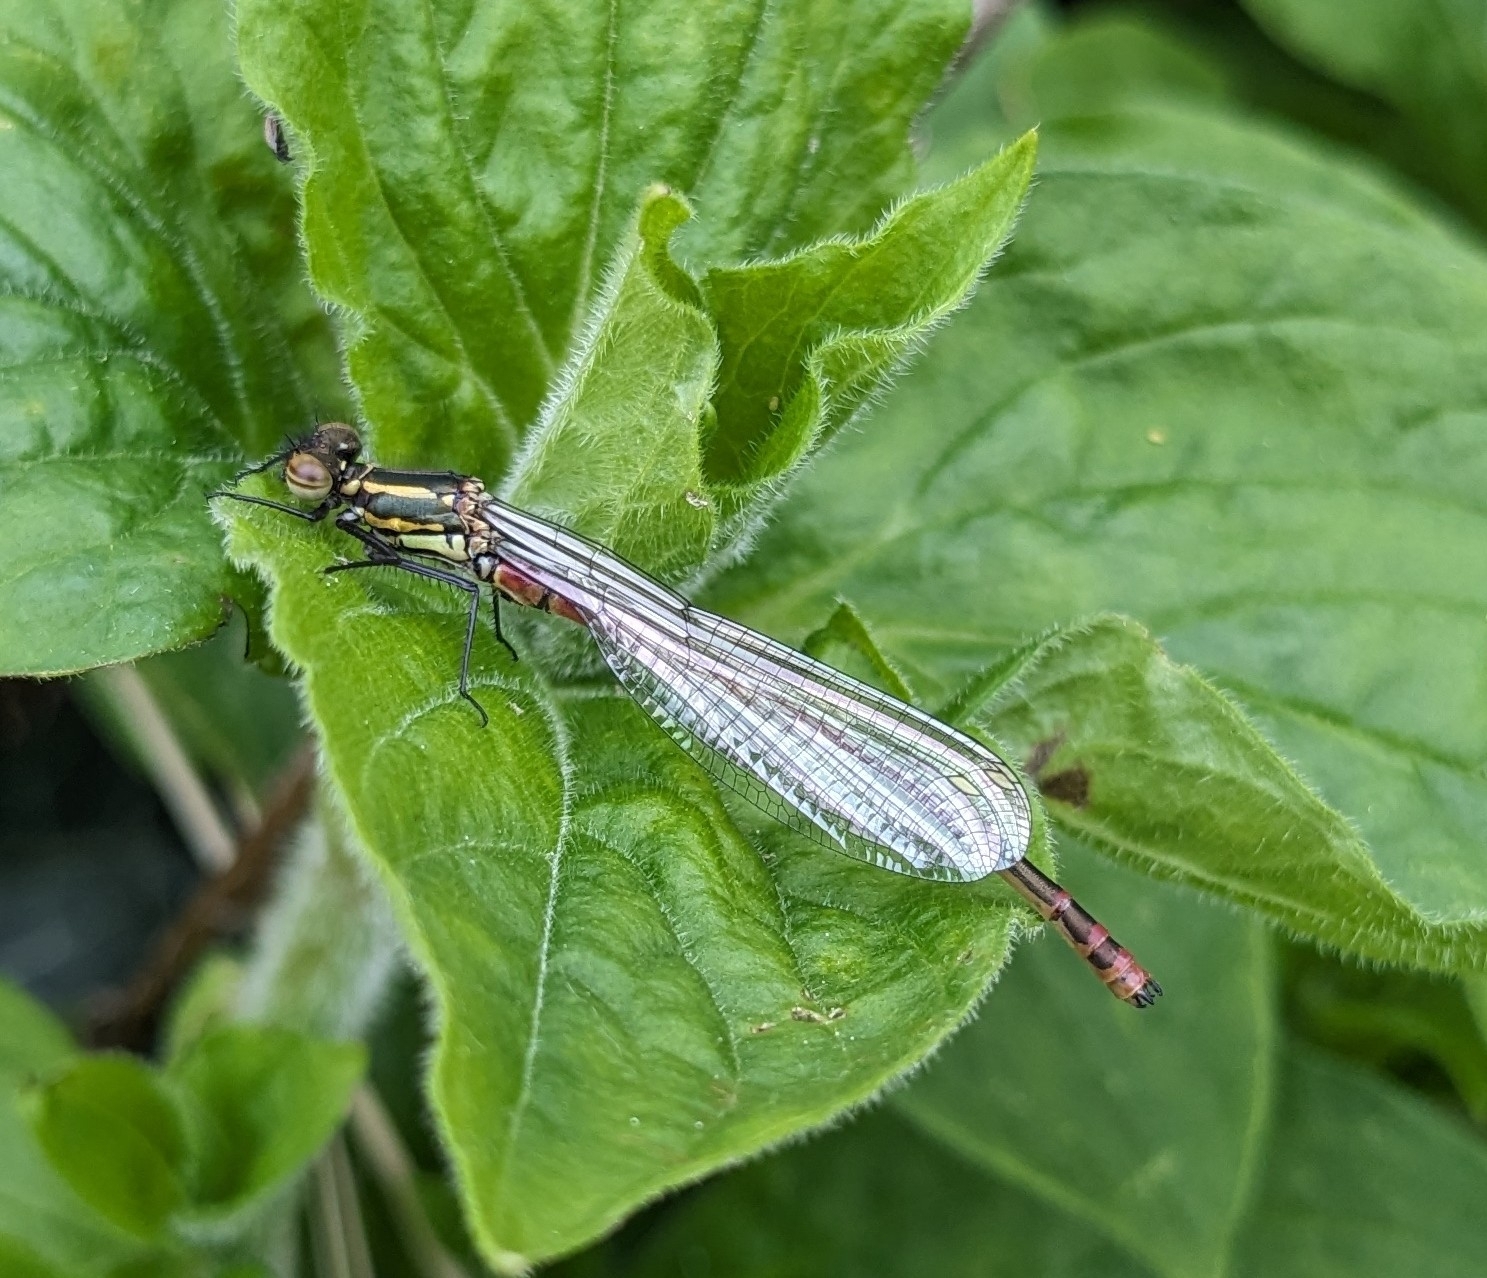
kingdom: Animalia
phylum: Arthropoda
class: Insecta
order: Odonata
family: Coenagrionidae
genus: Pyrrhosoma
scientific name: Pyrrhosoma nymphula
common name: Large red damsel
